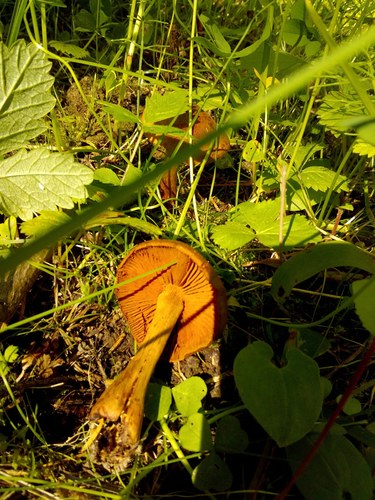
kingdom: Fungi
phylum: Basidiomycota
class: Agaricomycetes
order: Agaricales
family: Cortinariaceae
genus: Cortinarius
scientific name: Cortinarius semisanguineus
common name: Surprise webcap
